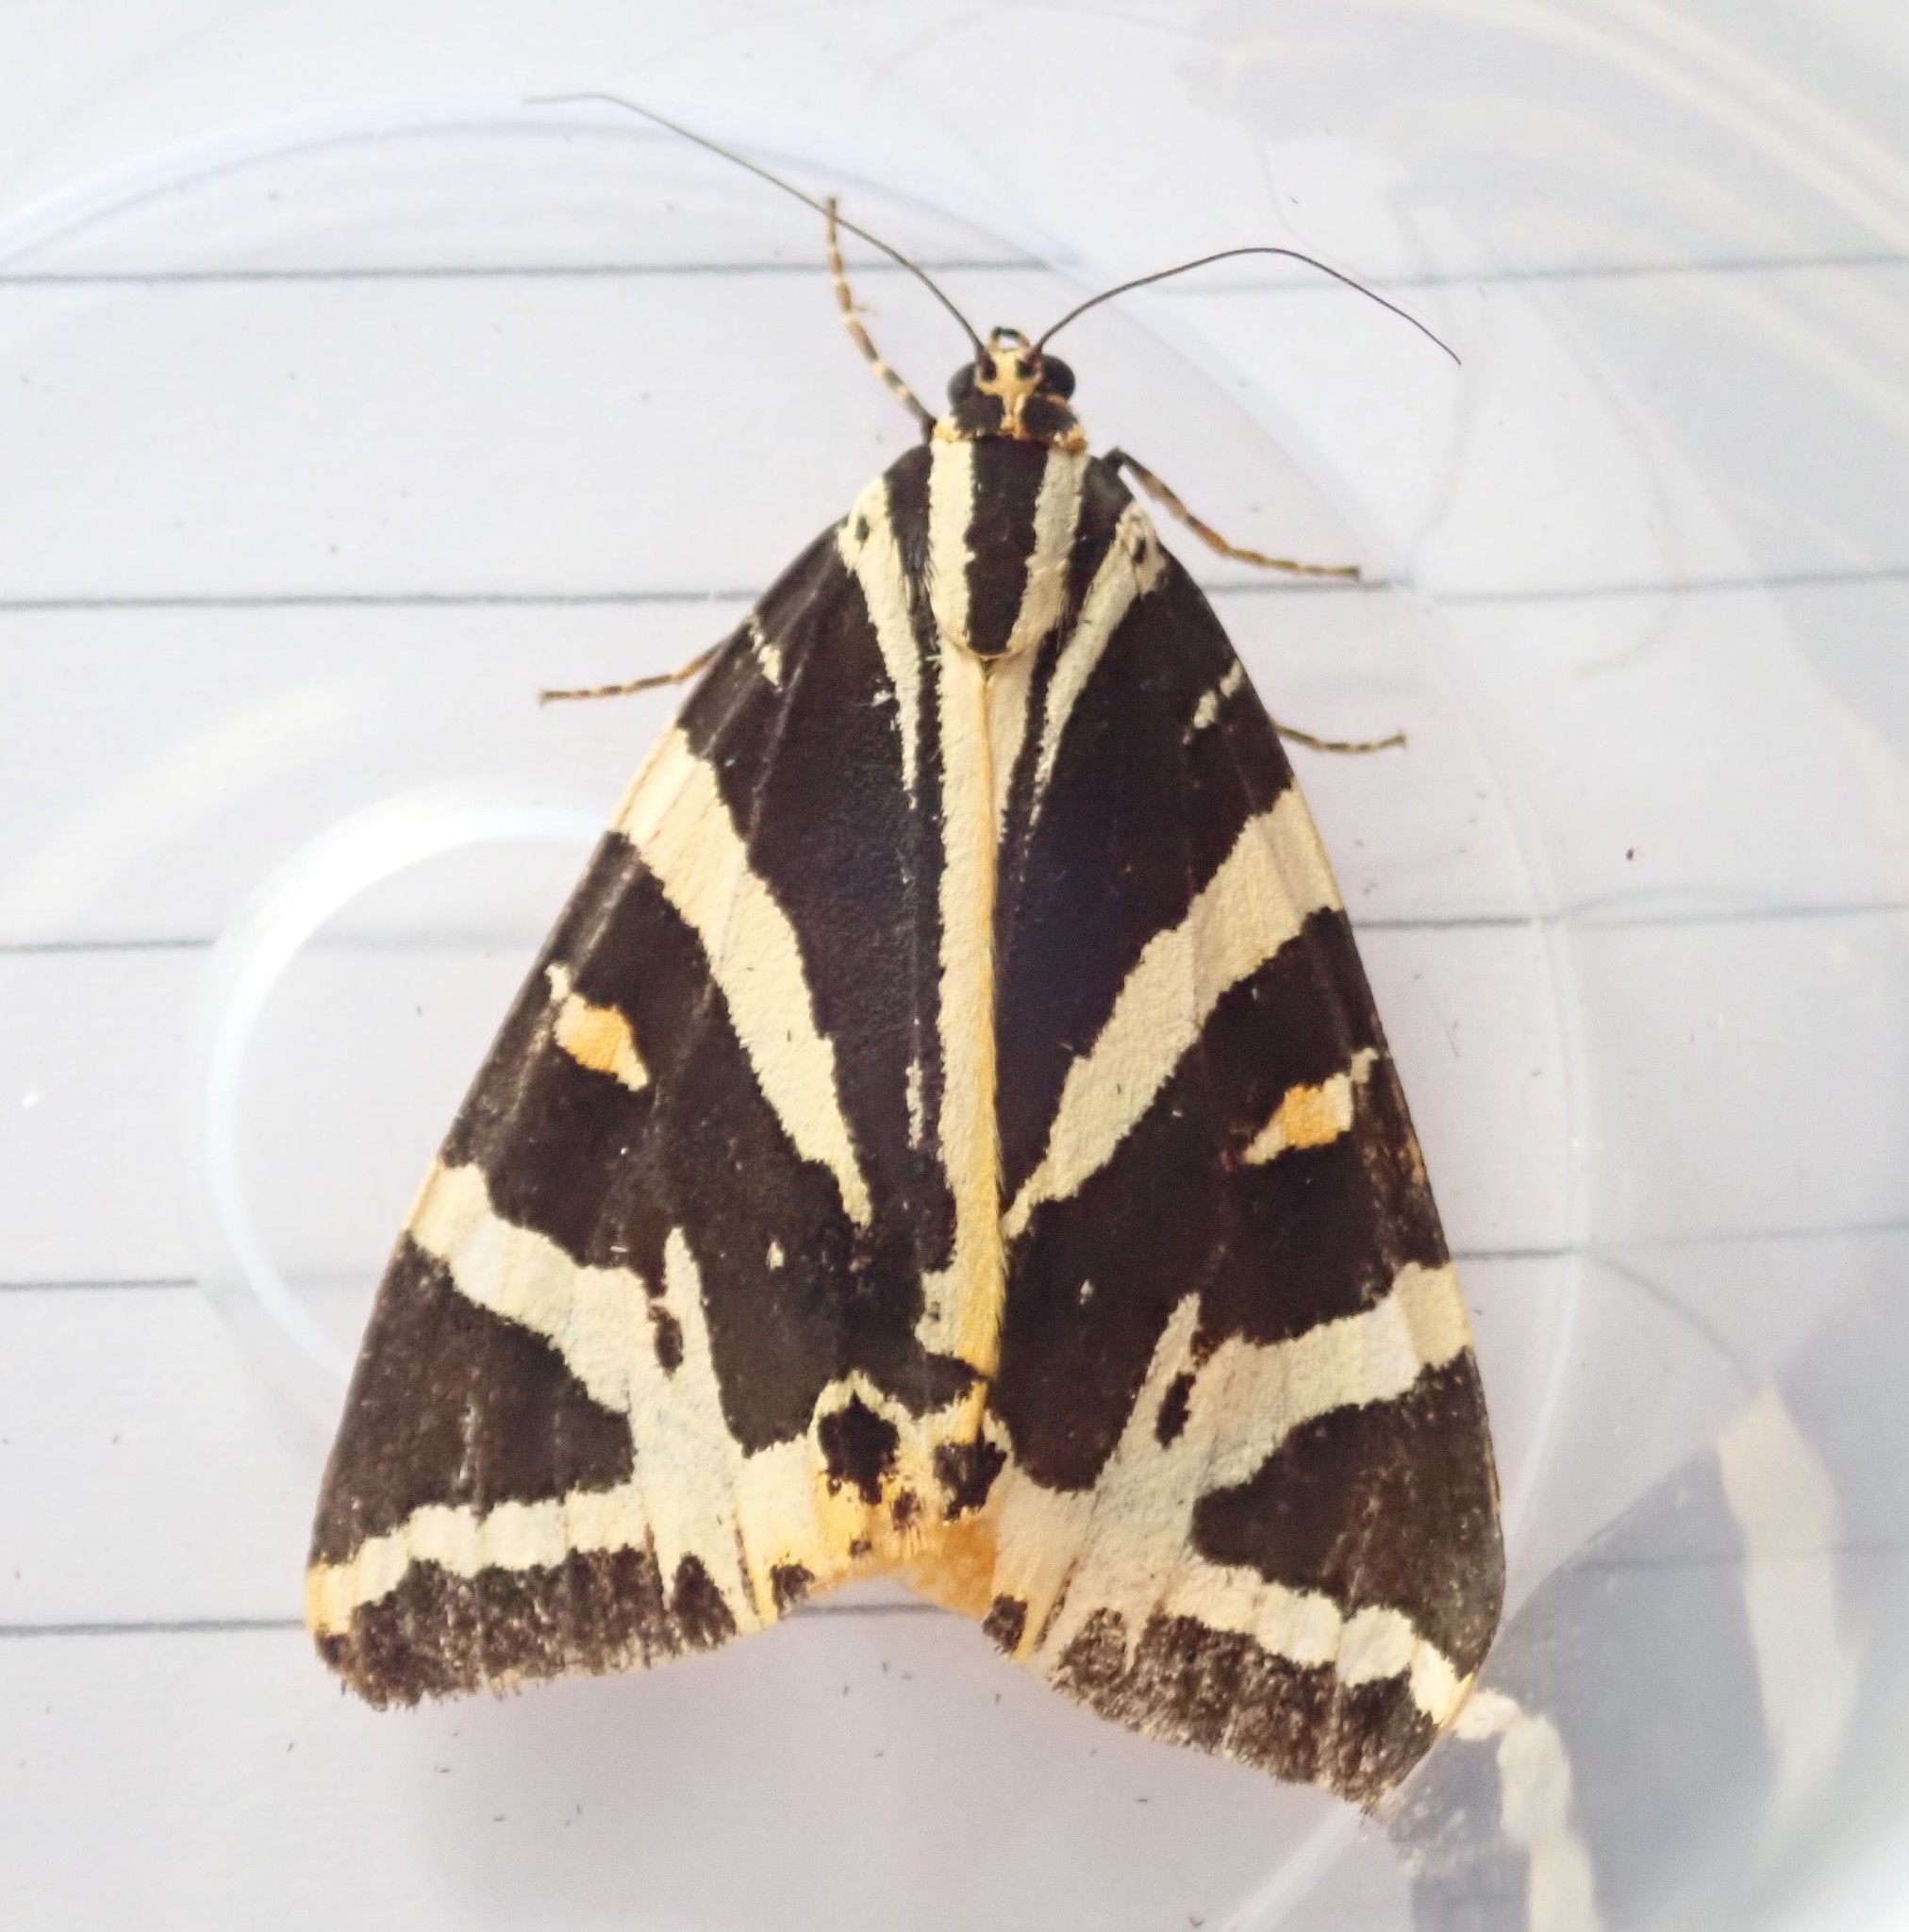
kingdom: Animalia
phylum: Arthropoda
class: Insecta
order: Lepidoptera
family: Erebidae
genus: Euplagia
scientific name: Euplagia quadripunctaria
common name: Jersey tiger
